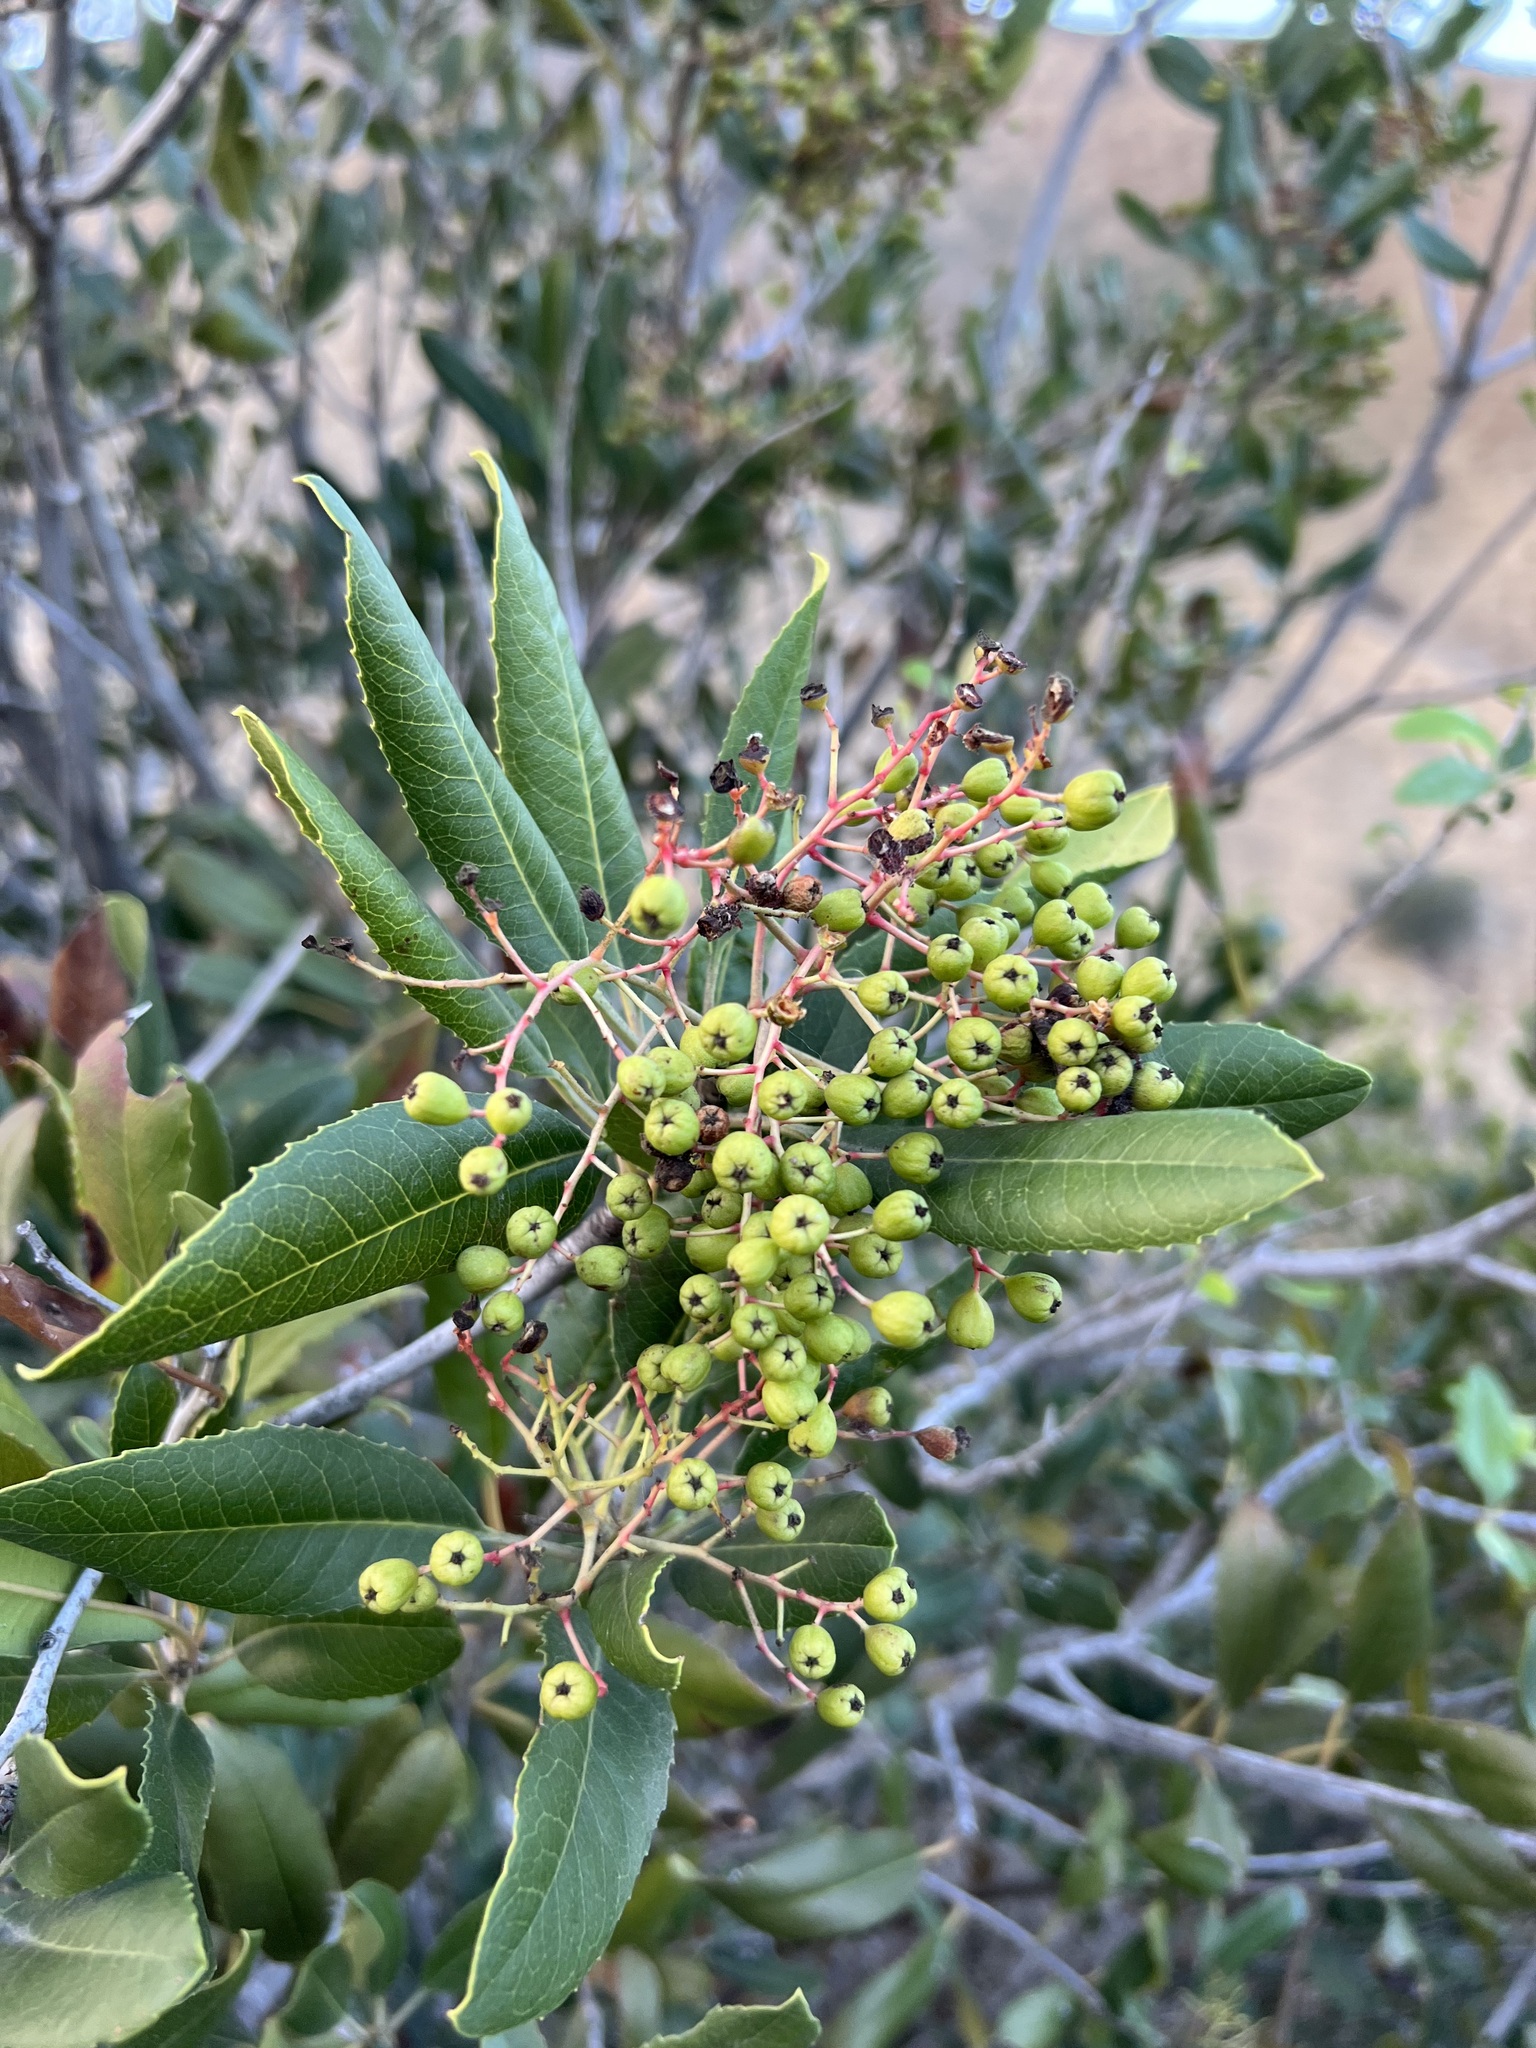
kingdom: Plantae
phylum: Tracheophyta
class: Magnoliopsida
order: Rosales
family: Rosaceae
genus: Heteromeles
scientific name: Heteromeles arbutifolia
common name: California-holly
